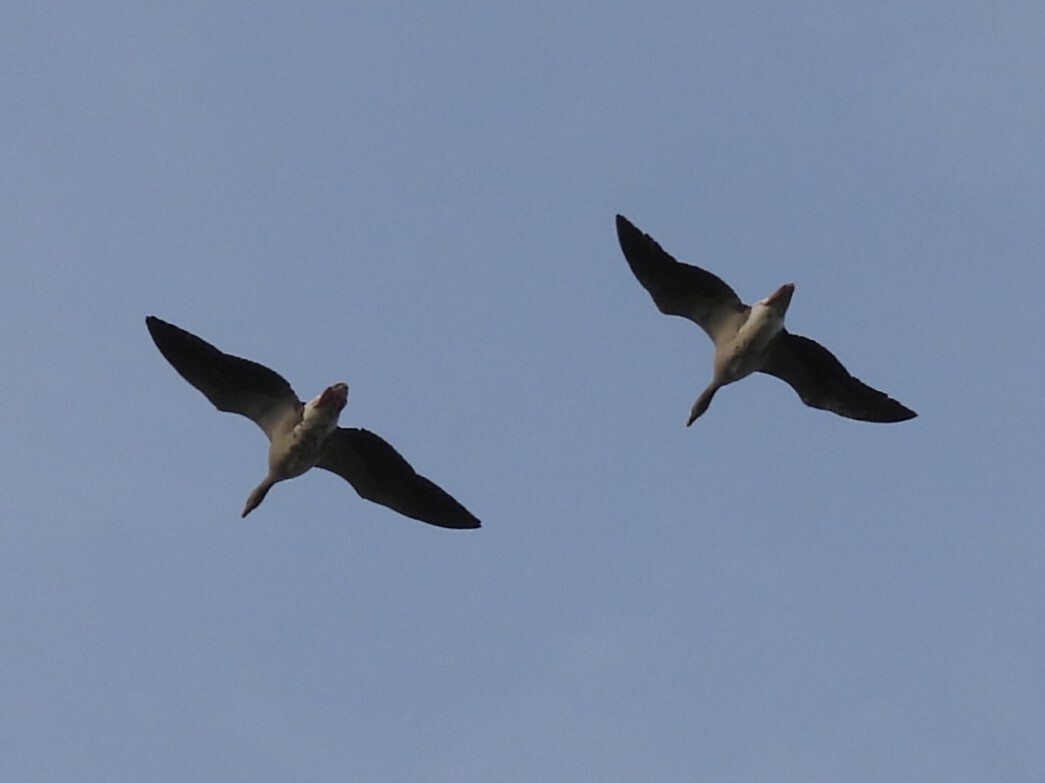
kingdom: Animalia
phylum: Chordata
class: Aves
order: Anseriformes
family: Anatidae
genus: Anser
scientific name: Anser anser
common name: Greylag goose
